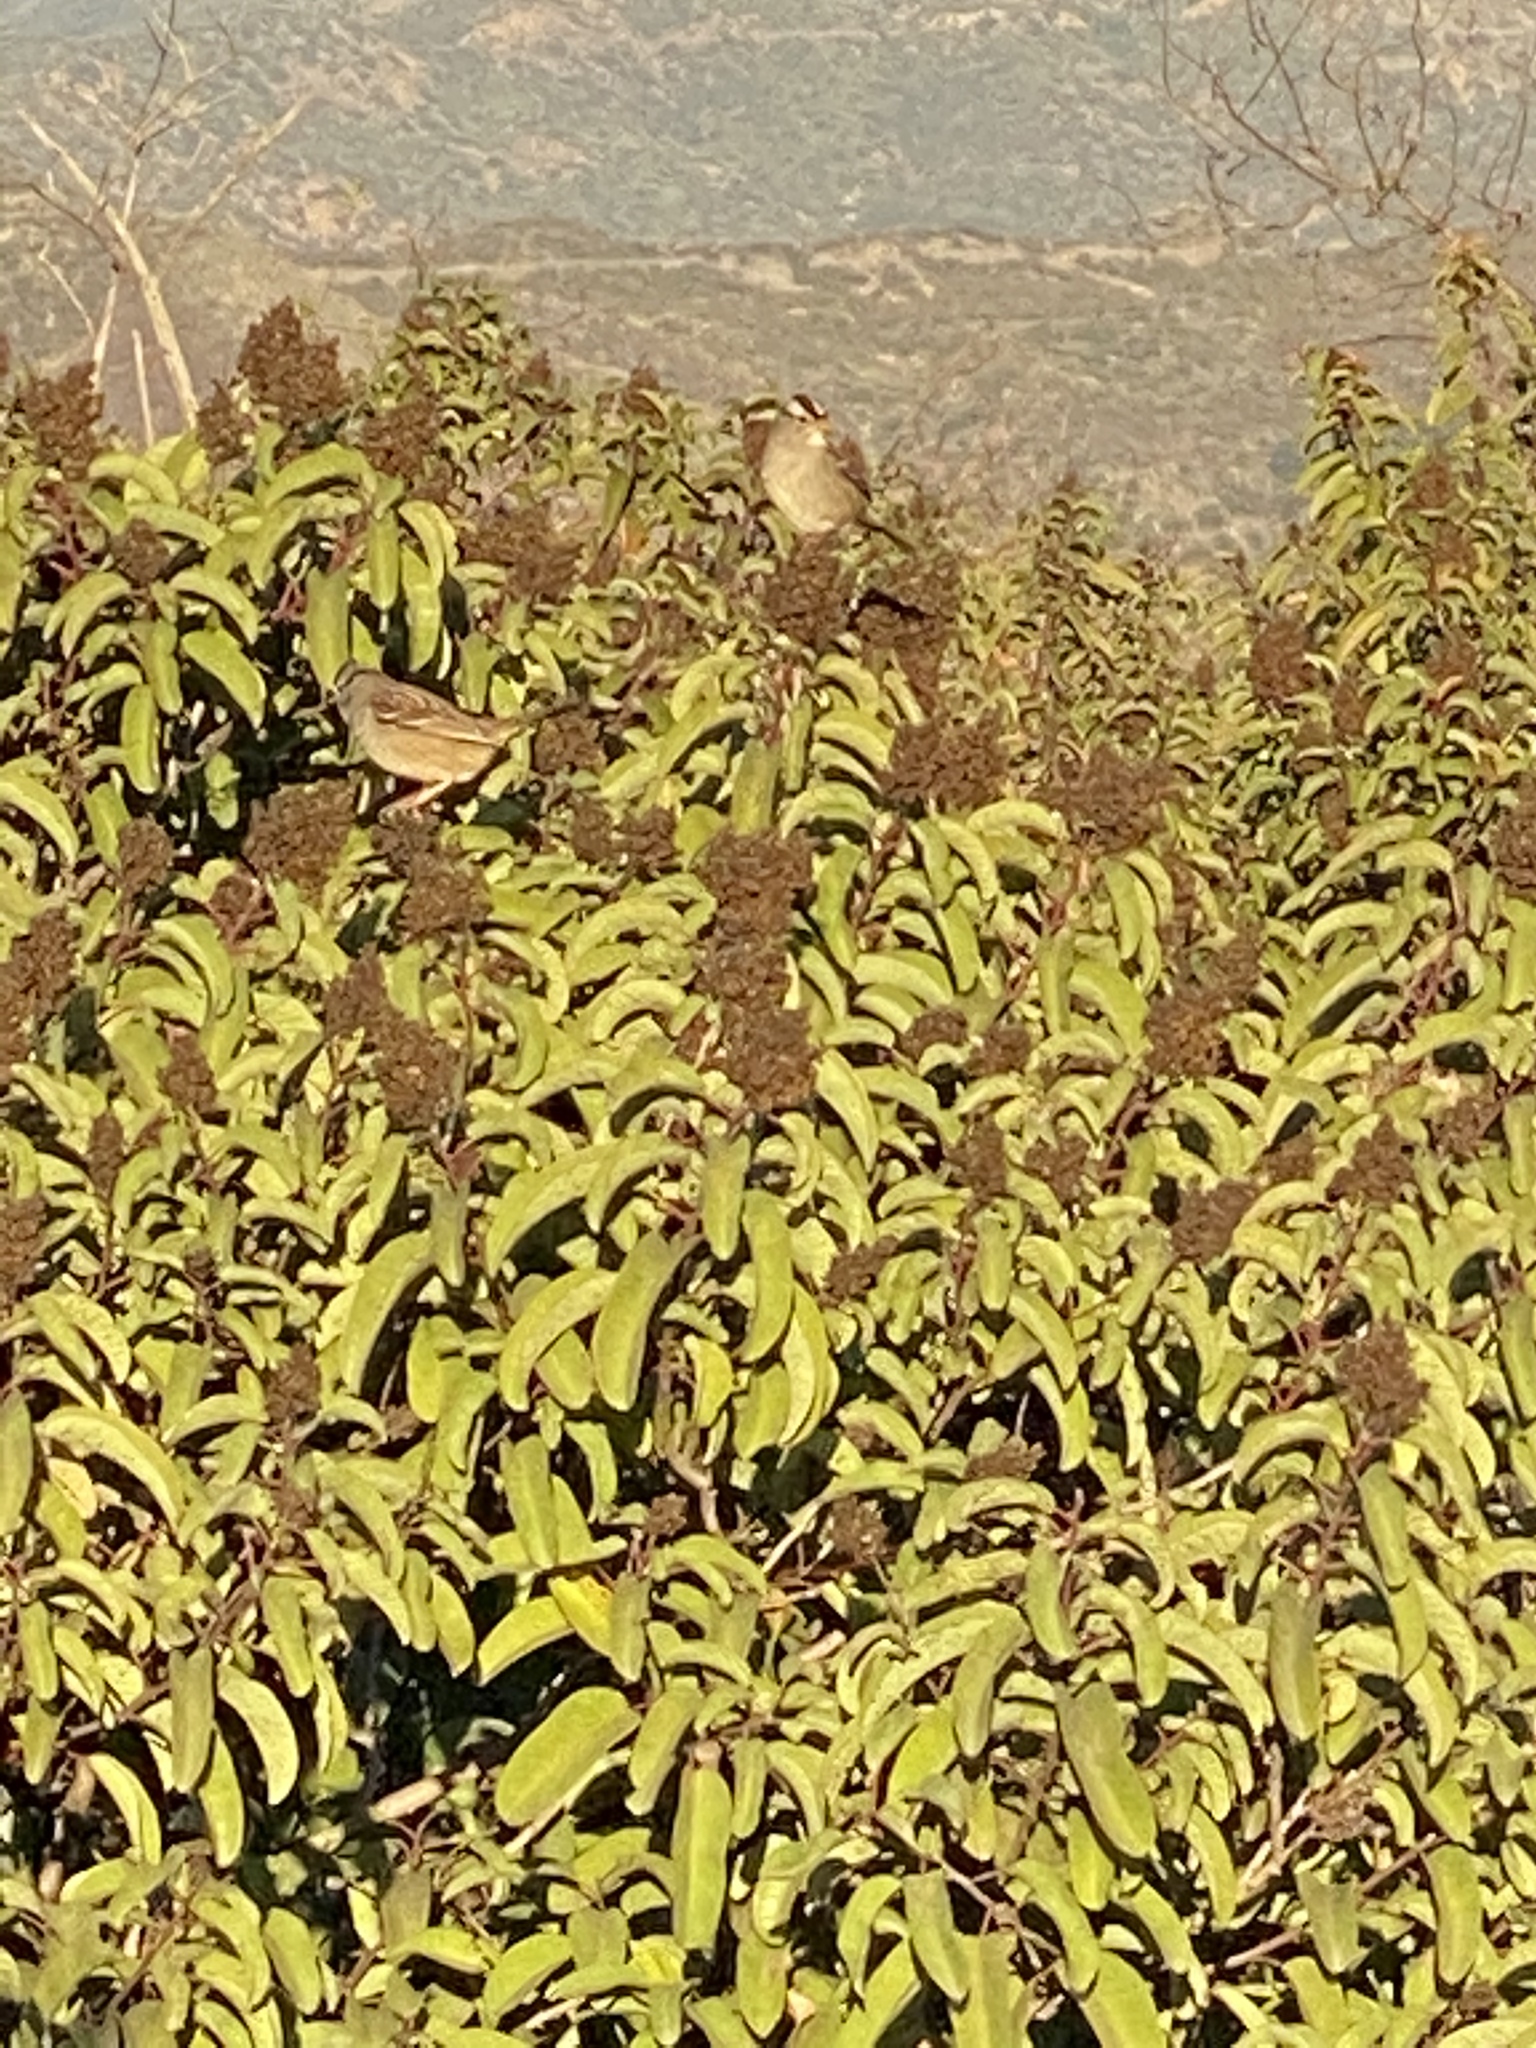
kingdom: Plantae
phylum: Tracheophyta
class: Magnoliopsida
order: Sapindales
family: Anacardiaceae
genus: Malosma
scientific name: Malosma laurina
